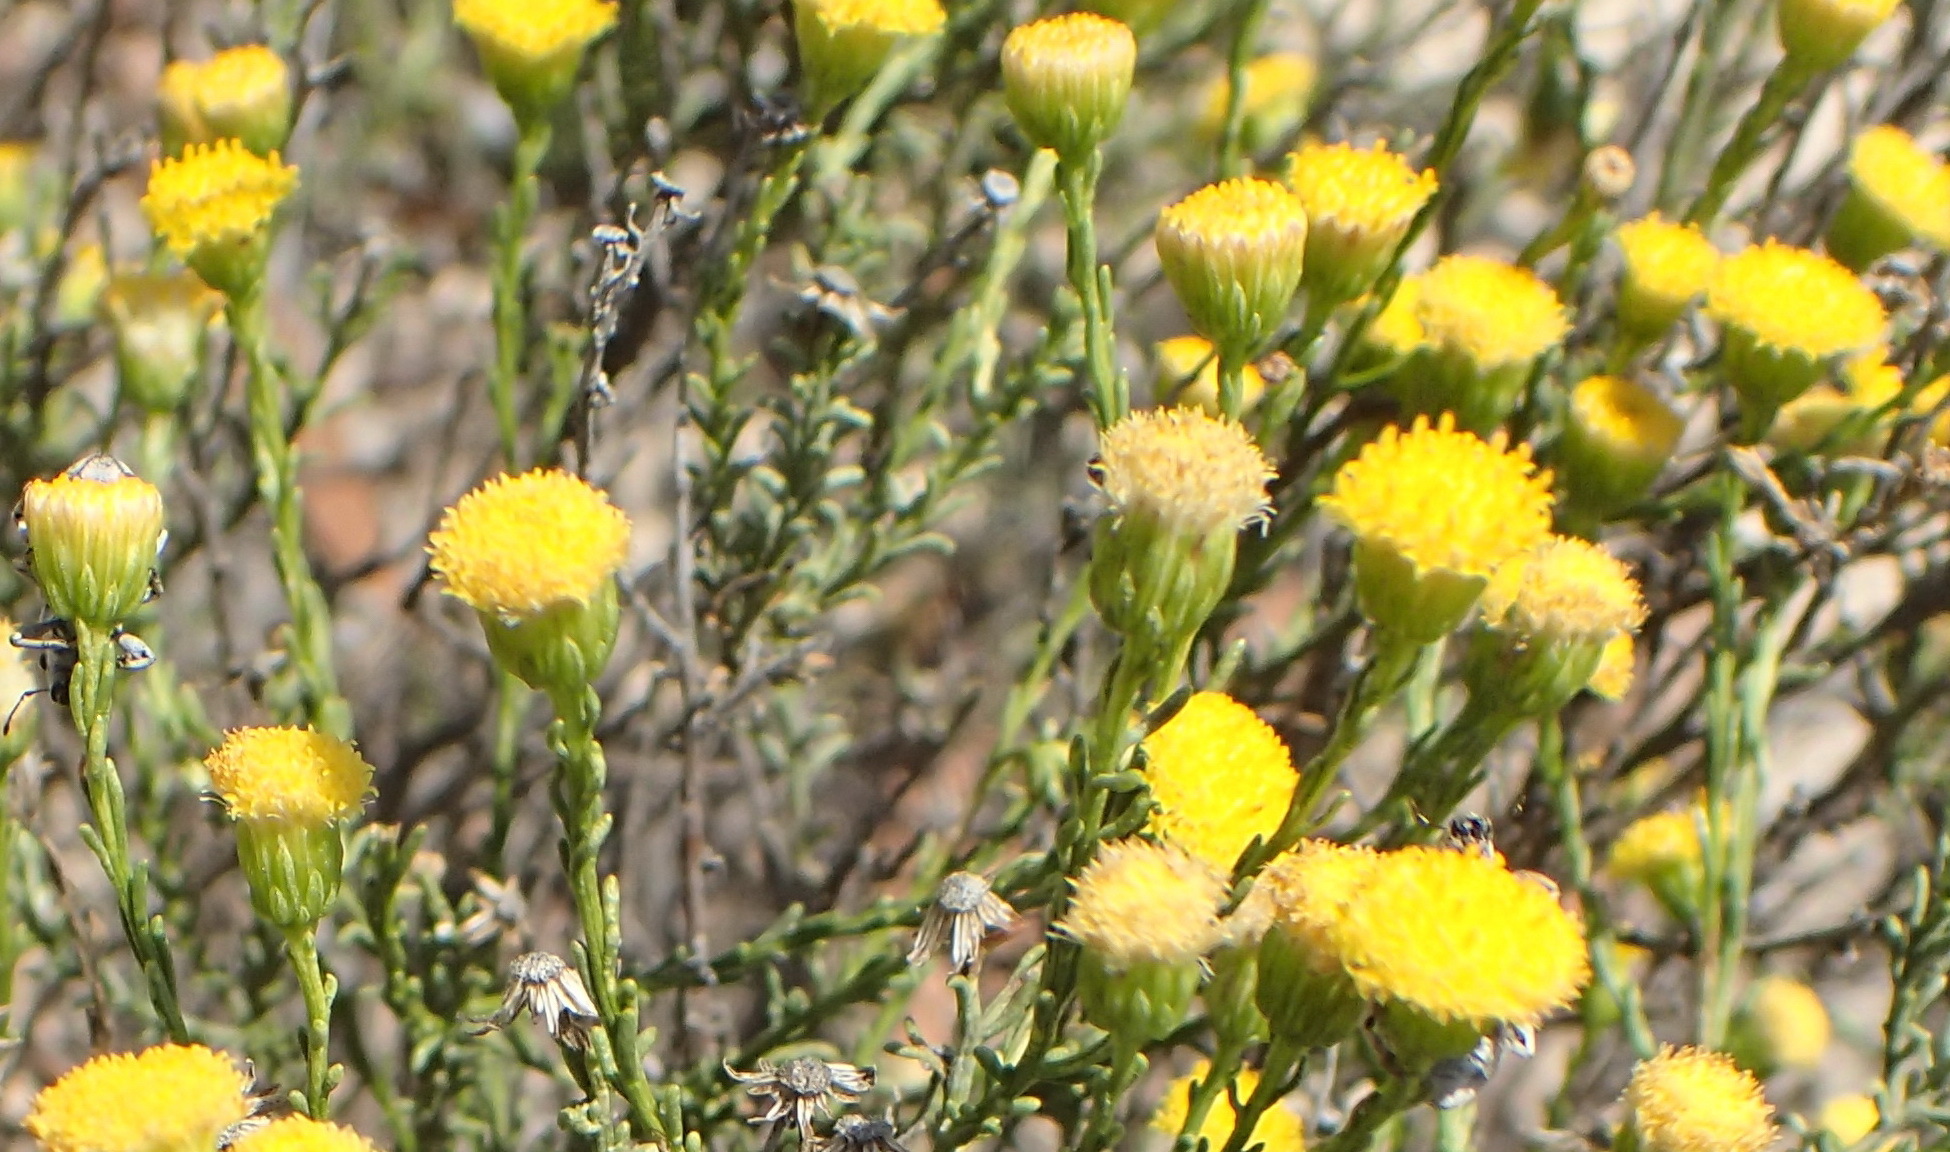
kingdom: Plantae
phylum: Tracheophyta
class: Magnoliopsida
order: Asterales
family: Asteraceae
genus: Chrysocoma
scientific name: Chrysocoma ciliata
